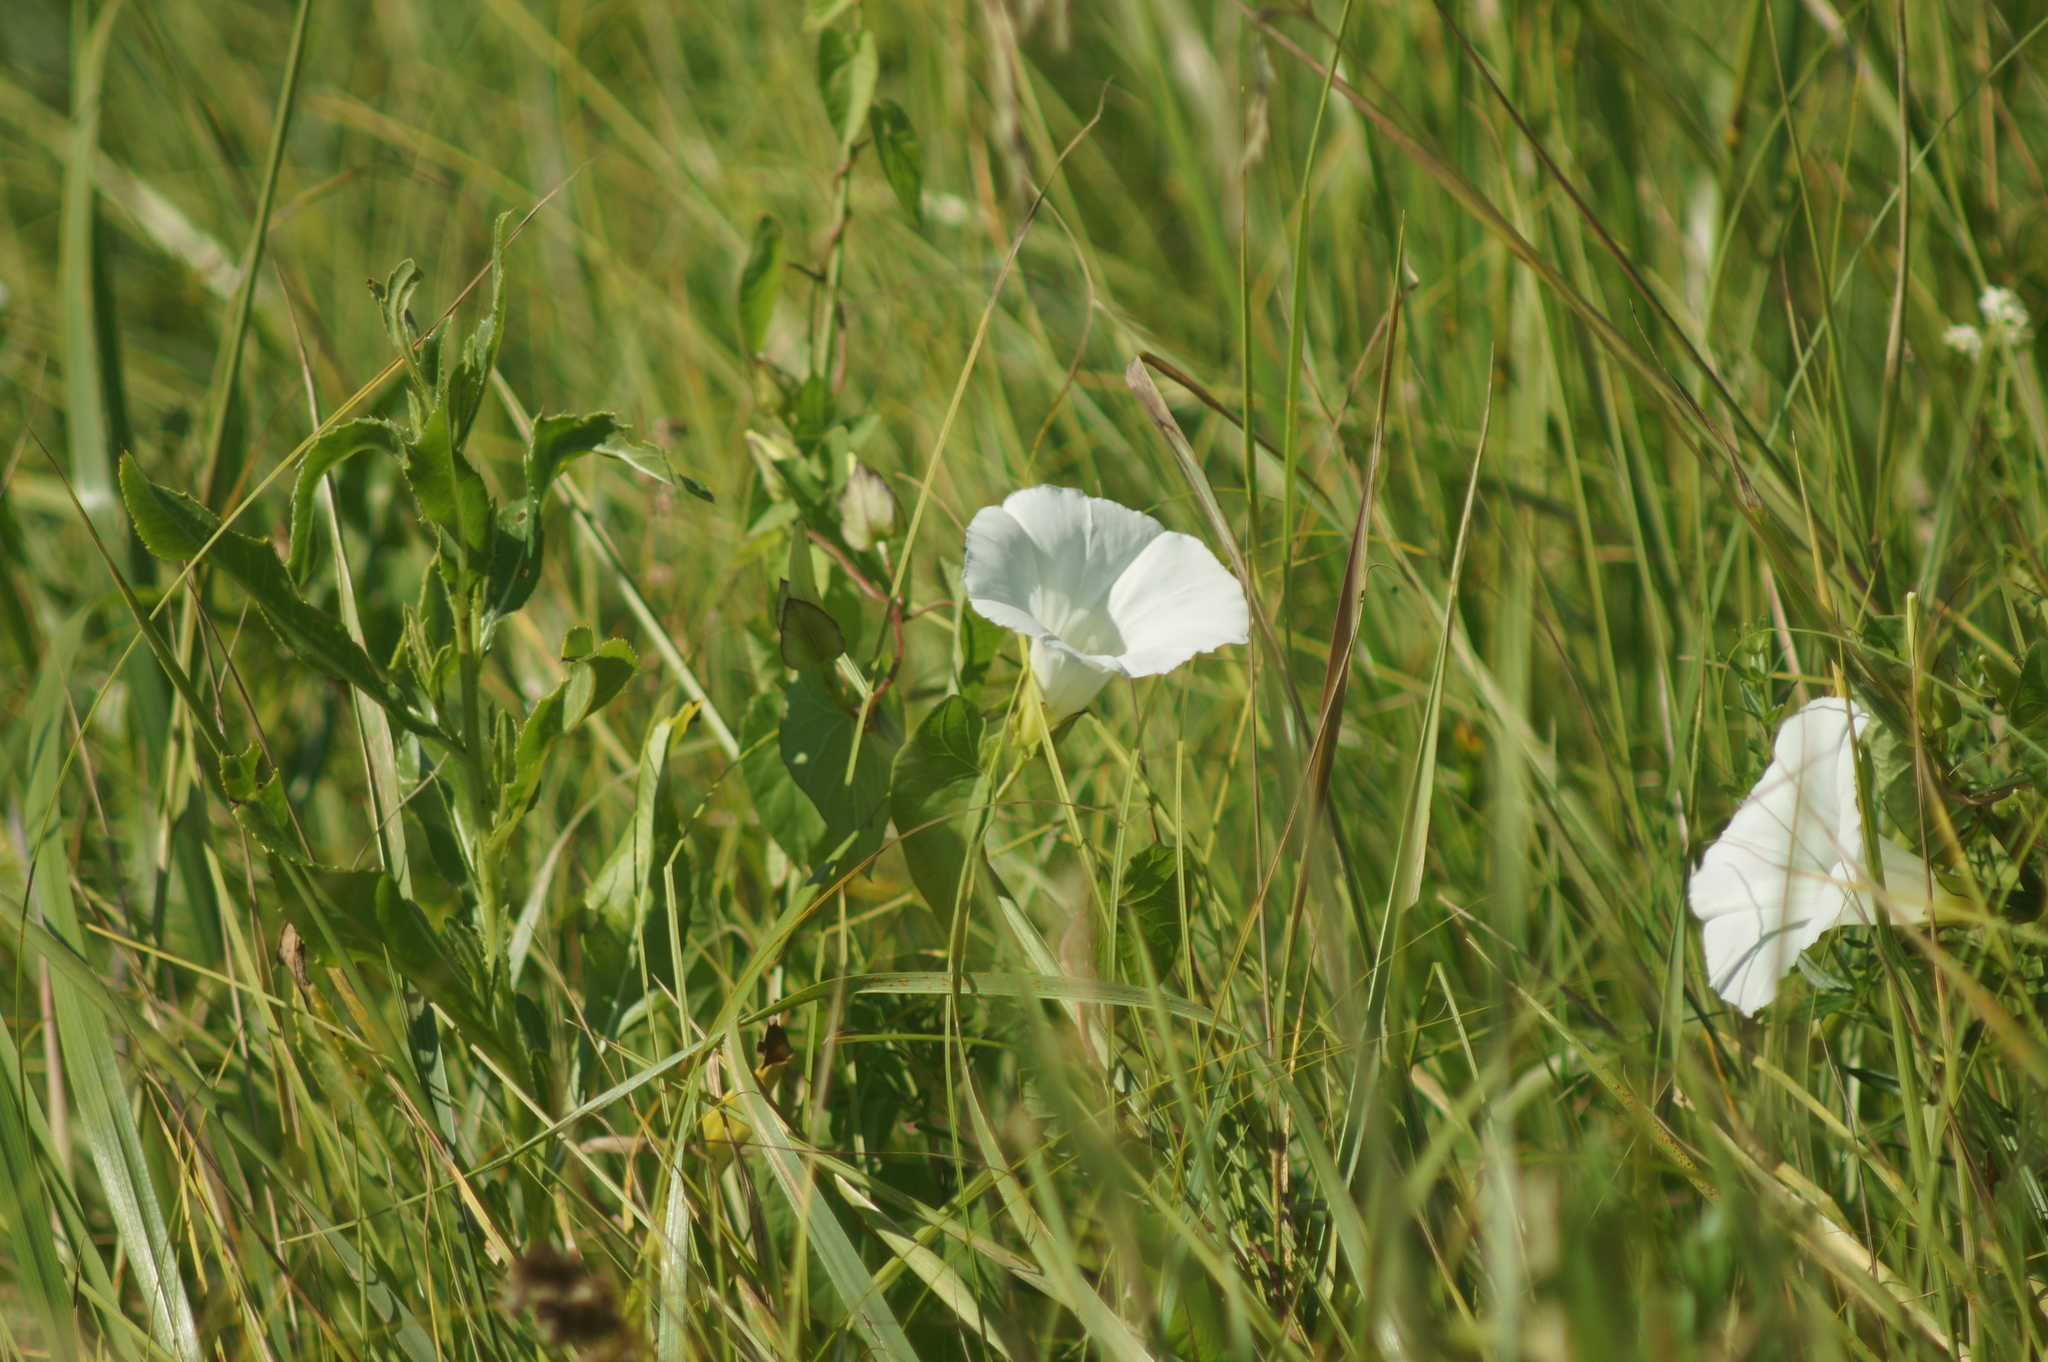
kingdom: Plantae
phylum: Tracheophyta
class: Magnoliopsida
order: Solanales
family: Convolvulaceae
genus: Calystegia
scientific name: Calystegia sepium
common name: Hedge bindweed
